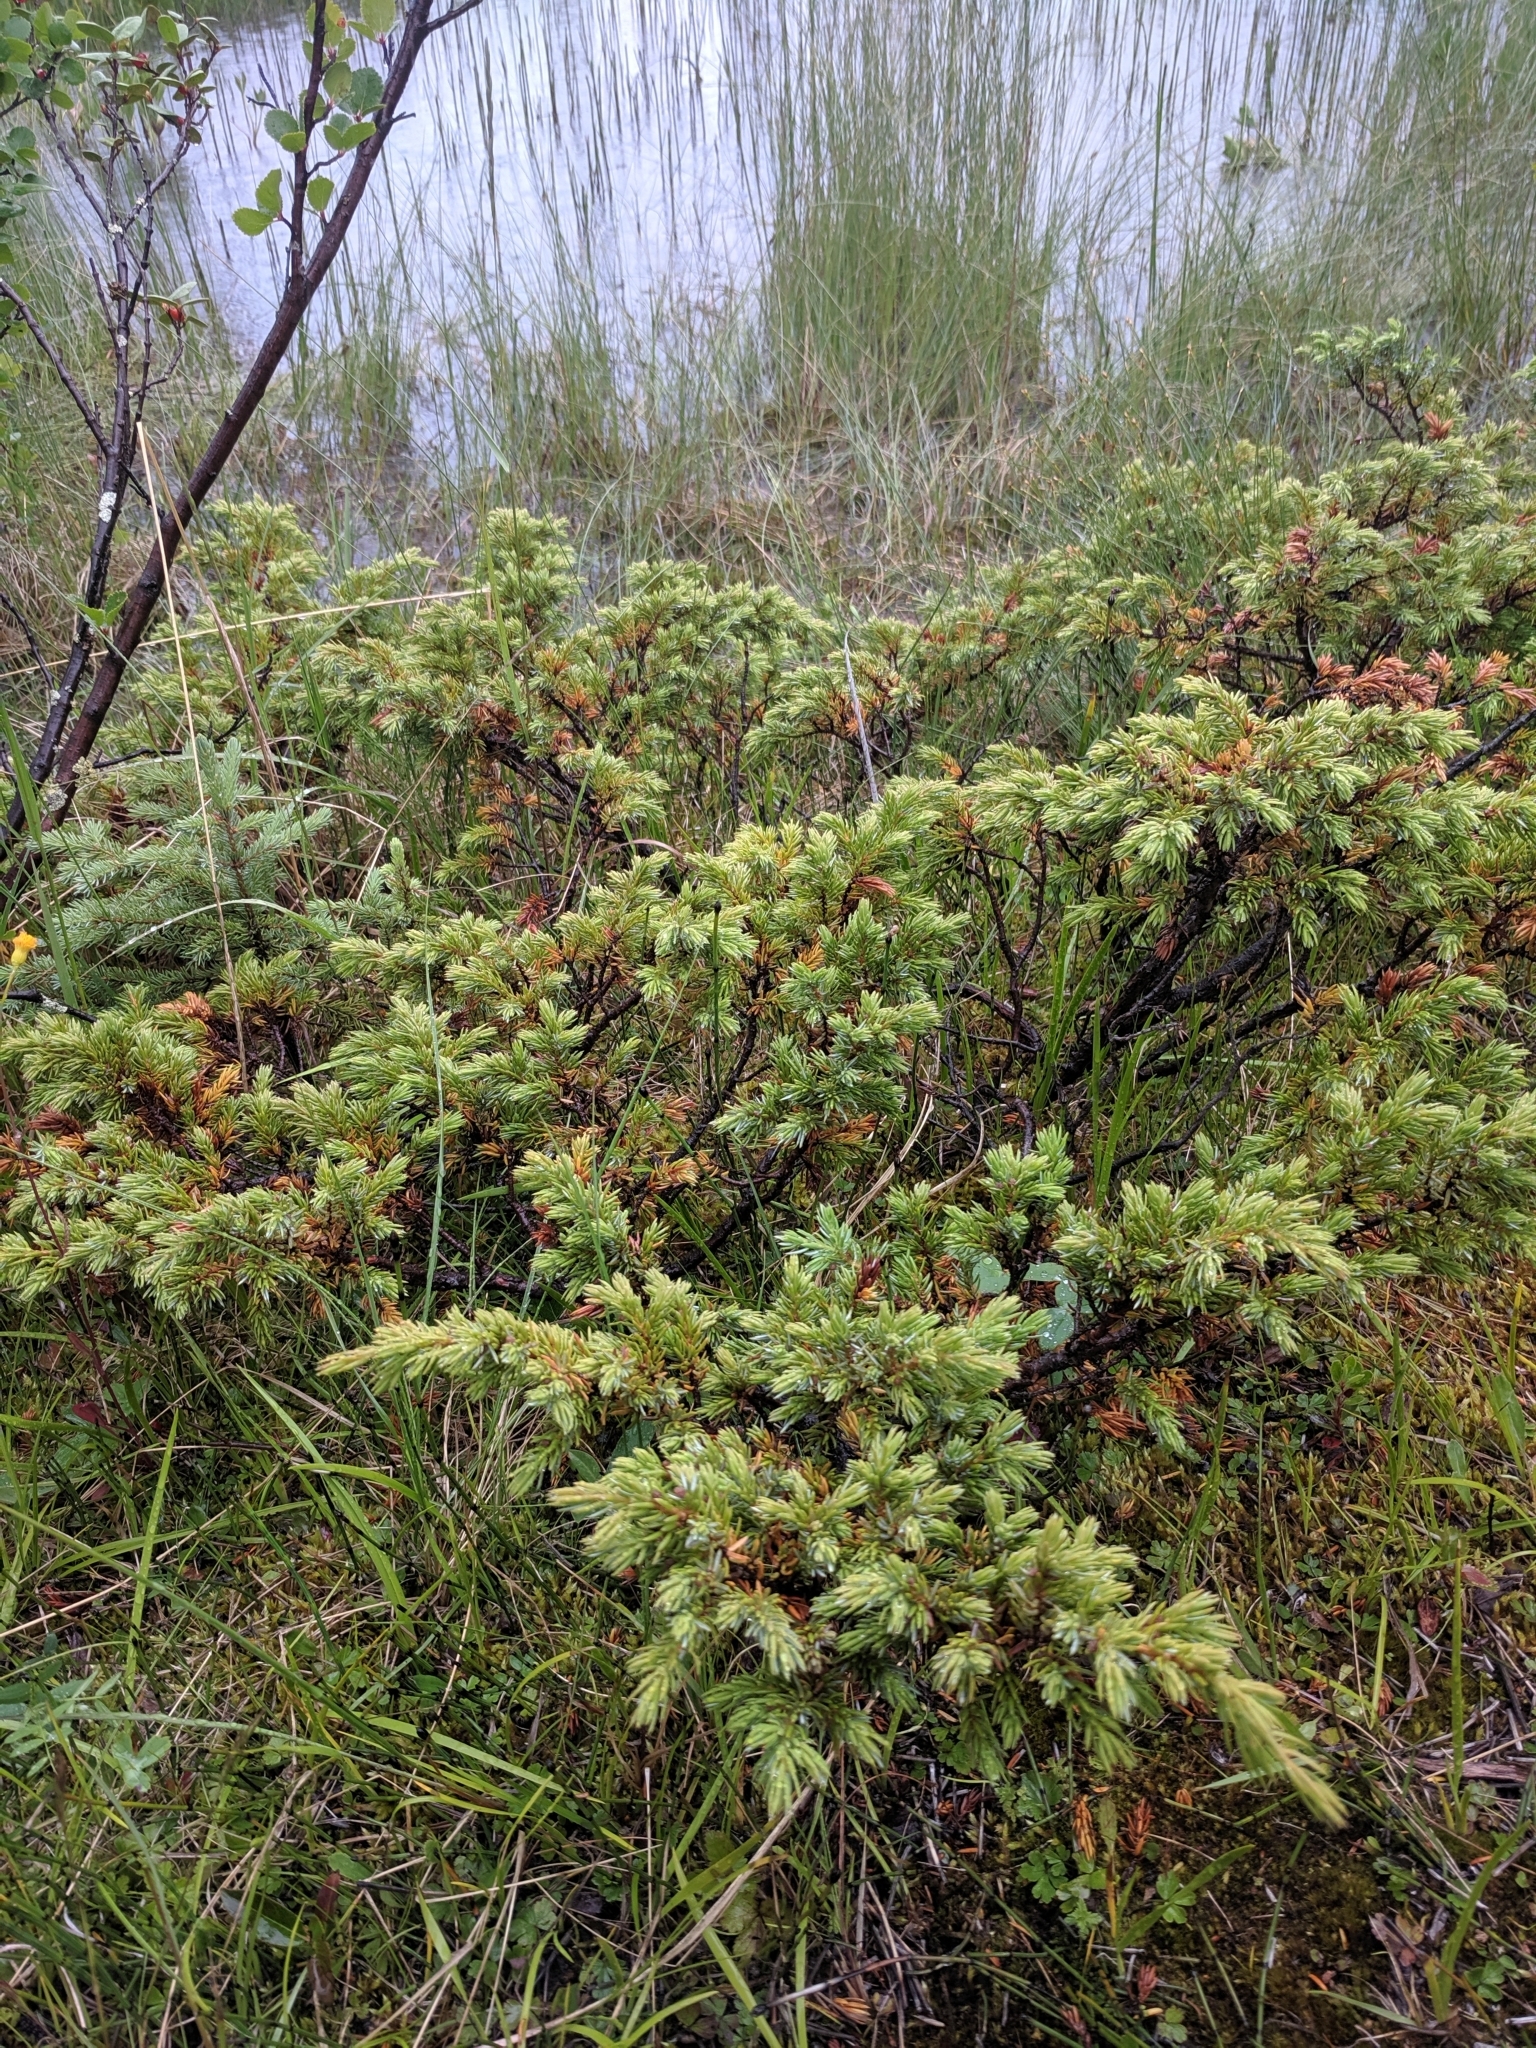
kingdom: Plantae
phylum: Tracheophyta
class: Pinopsida
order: Pinales
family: Cupressaceae
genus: Juniperus
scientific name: Juniperus communis
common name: Common juniper
